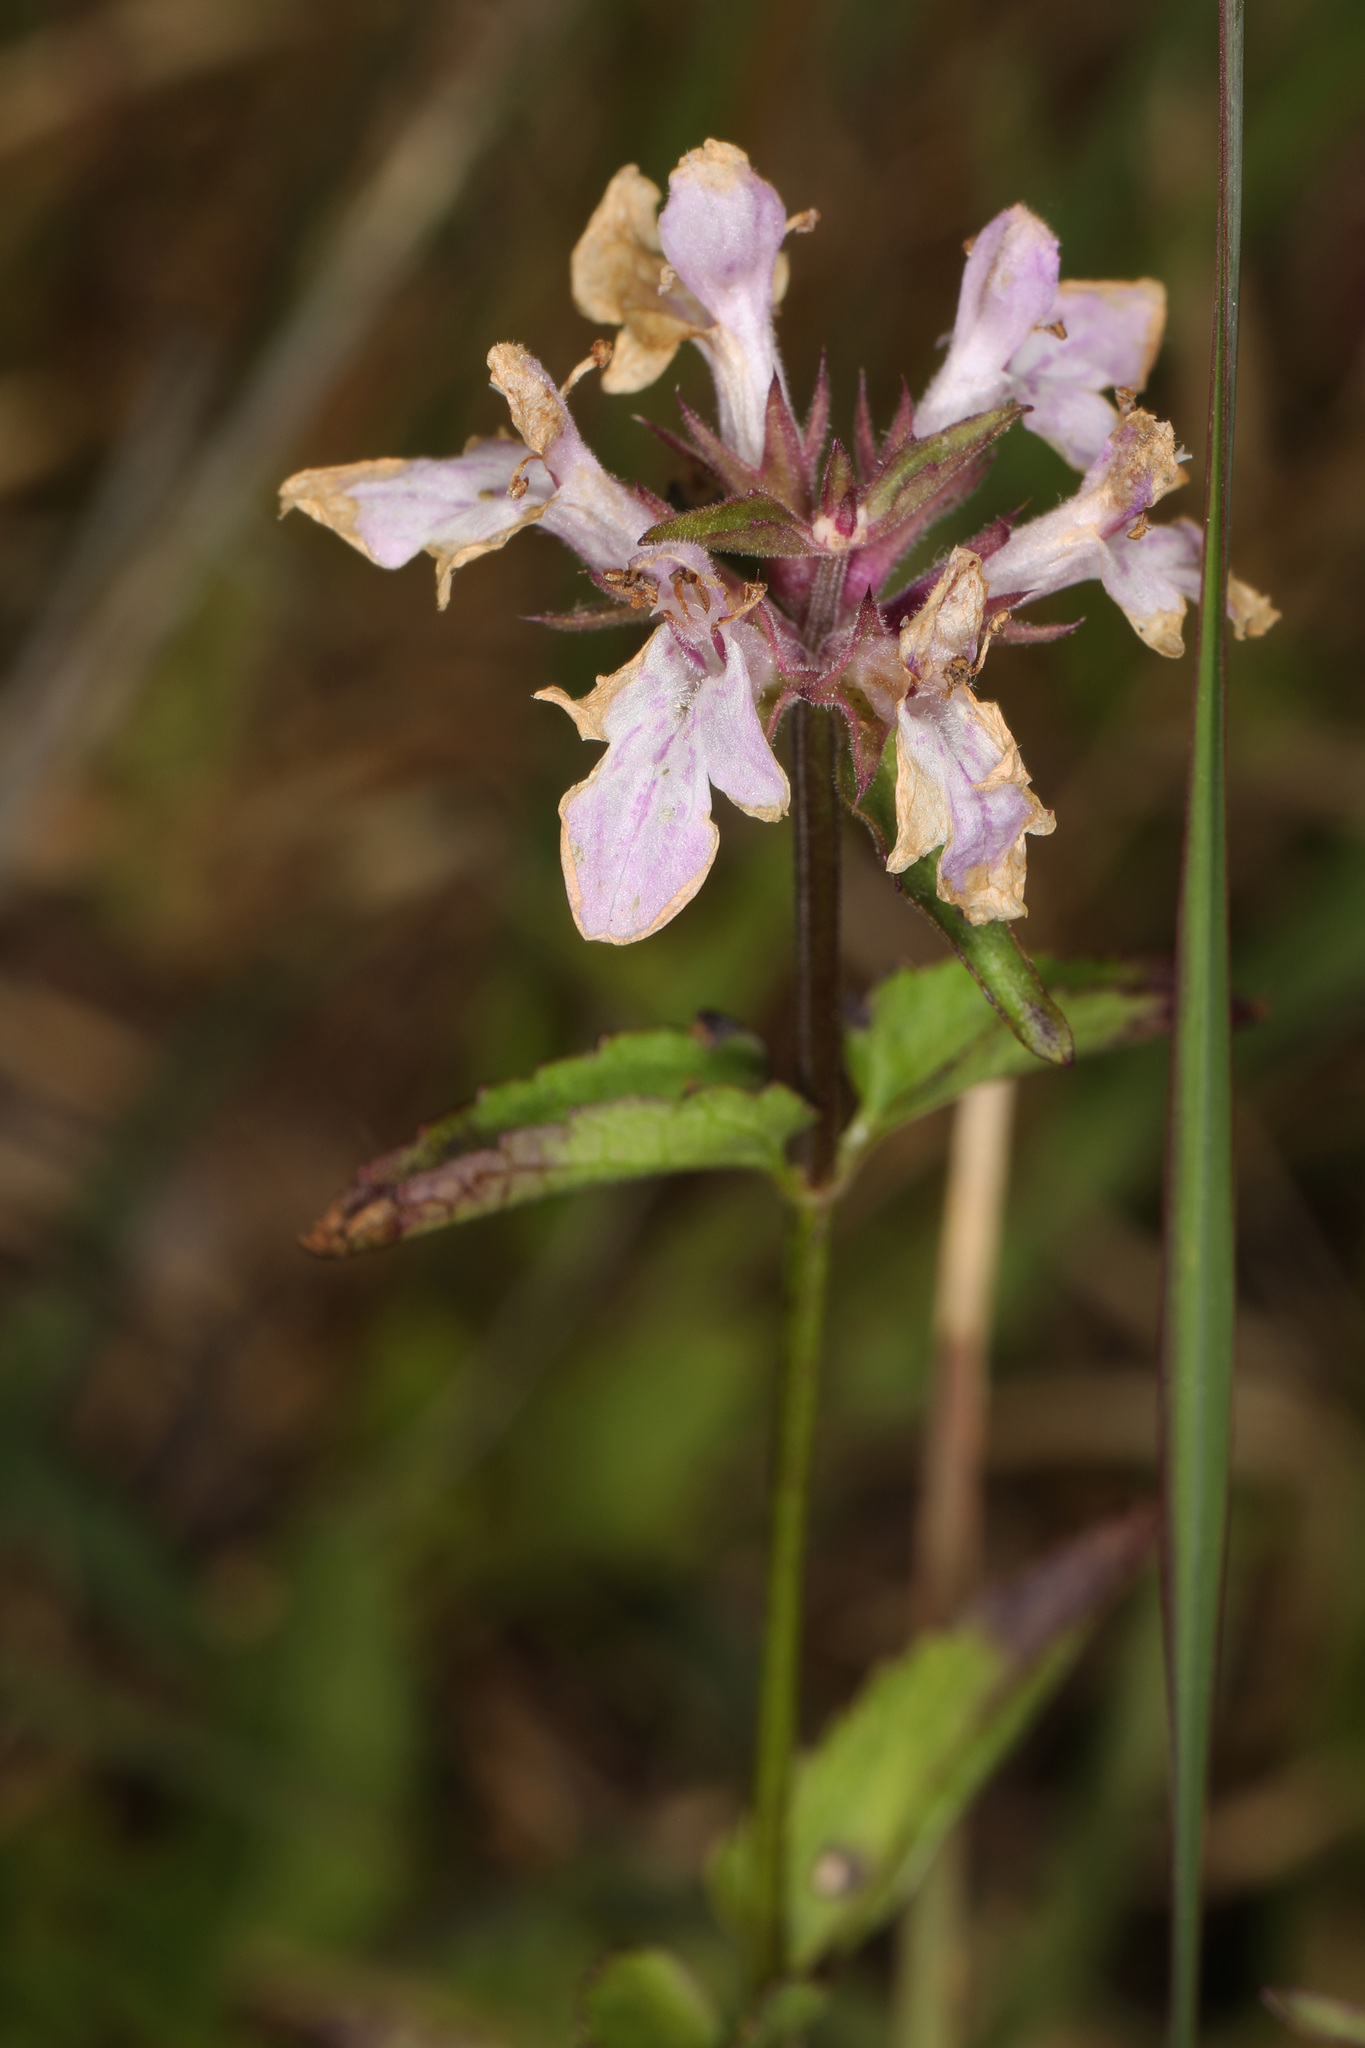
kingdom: Plantae
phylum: Tracheophyta
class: Magnoliopsida
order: Lamiales
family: Lamiaceae
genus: Stachys
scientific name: Stachys floridana
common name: Florida betony
